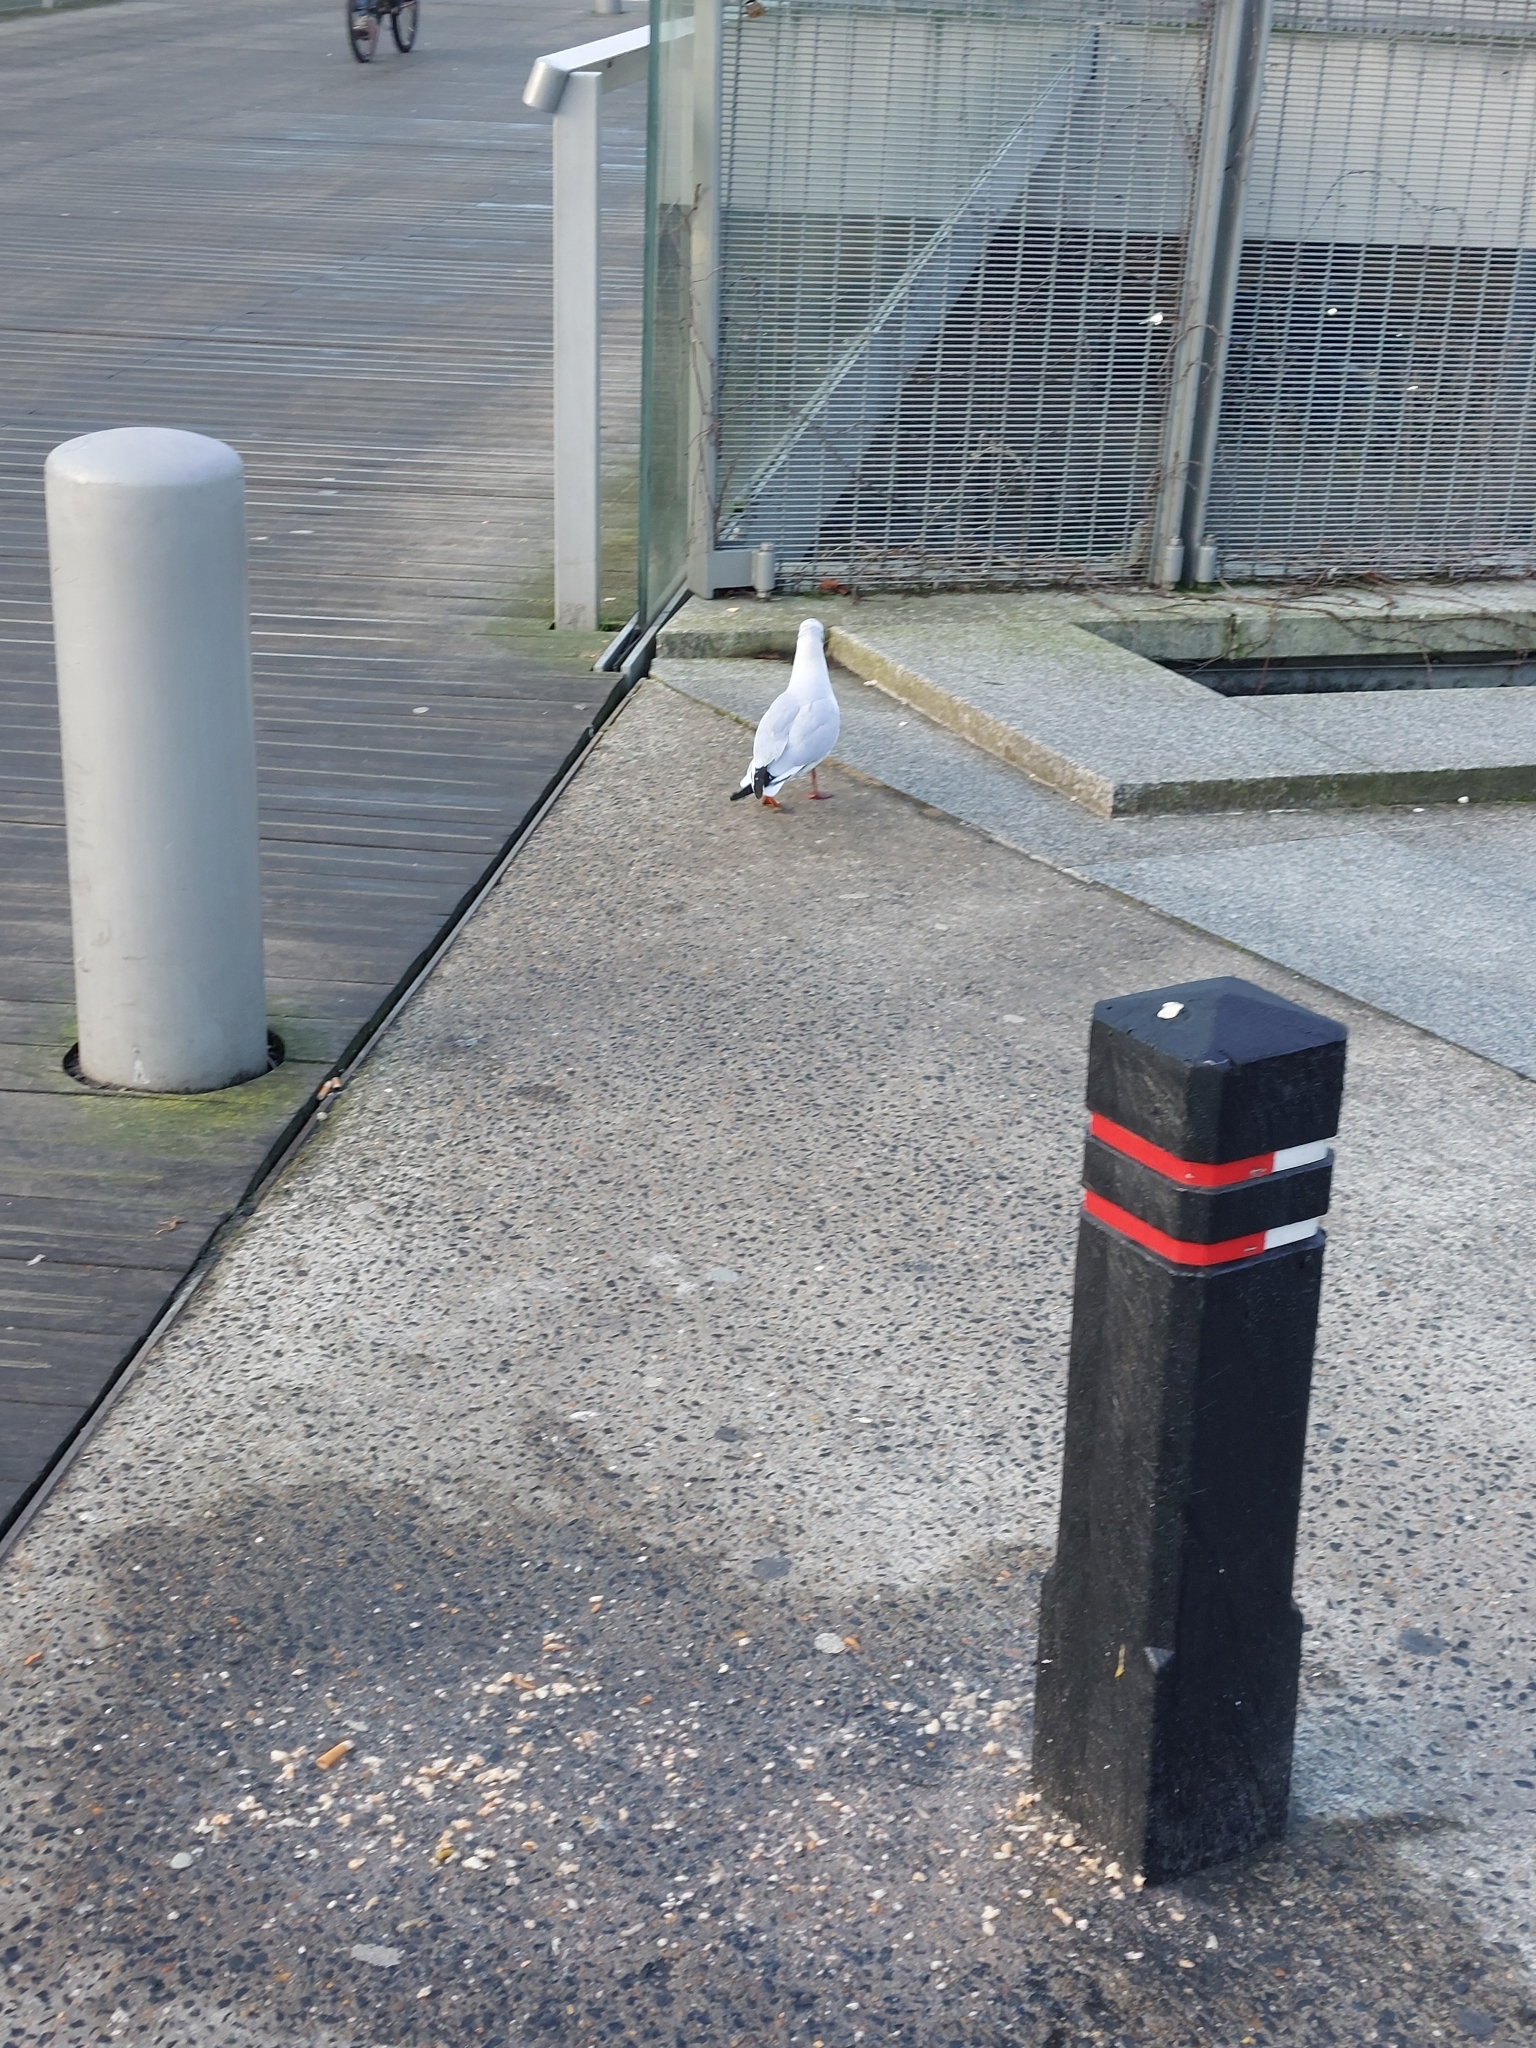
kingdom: Animalia
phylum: Chordata
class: Aves
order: Charadriiformes
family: Laridae
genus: Chroicocephalus
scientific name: Chroicocephalus ridibundus
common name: Black-headed gull
